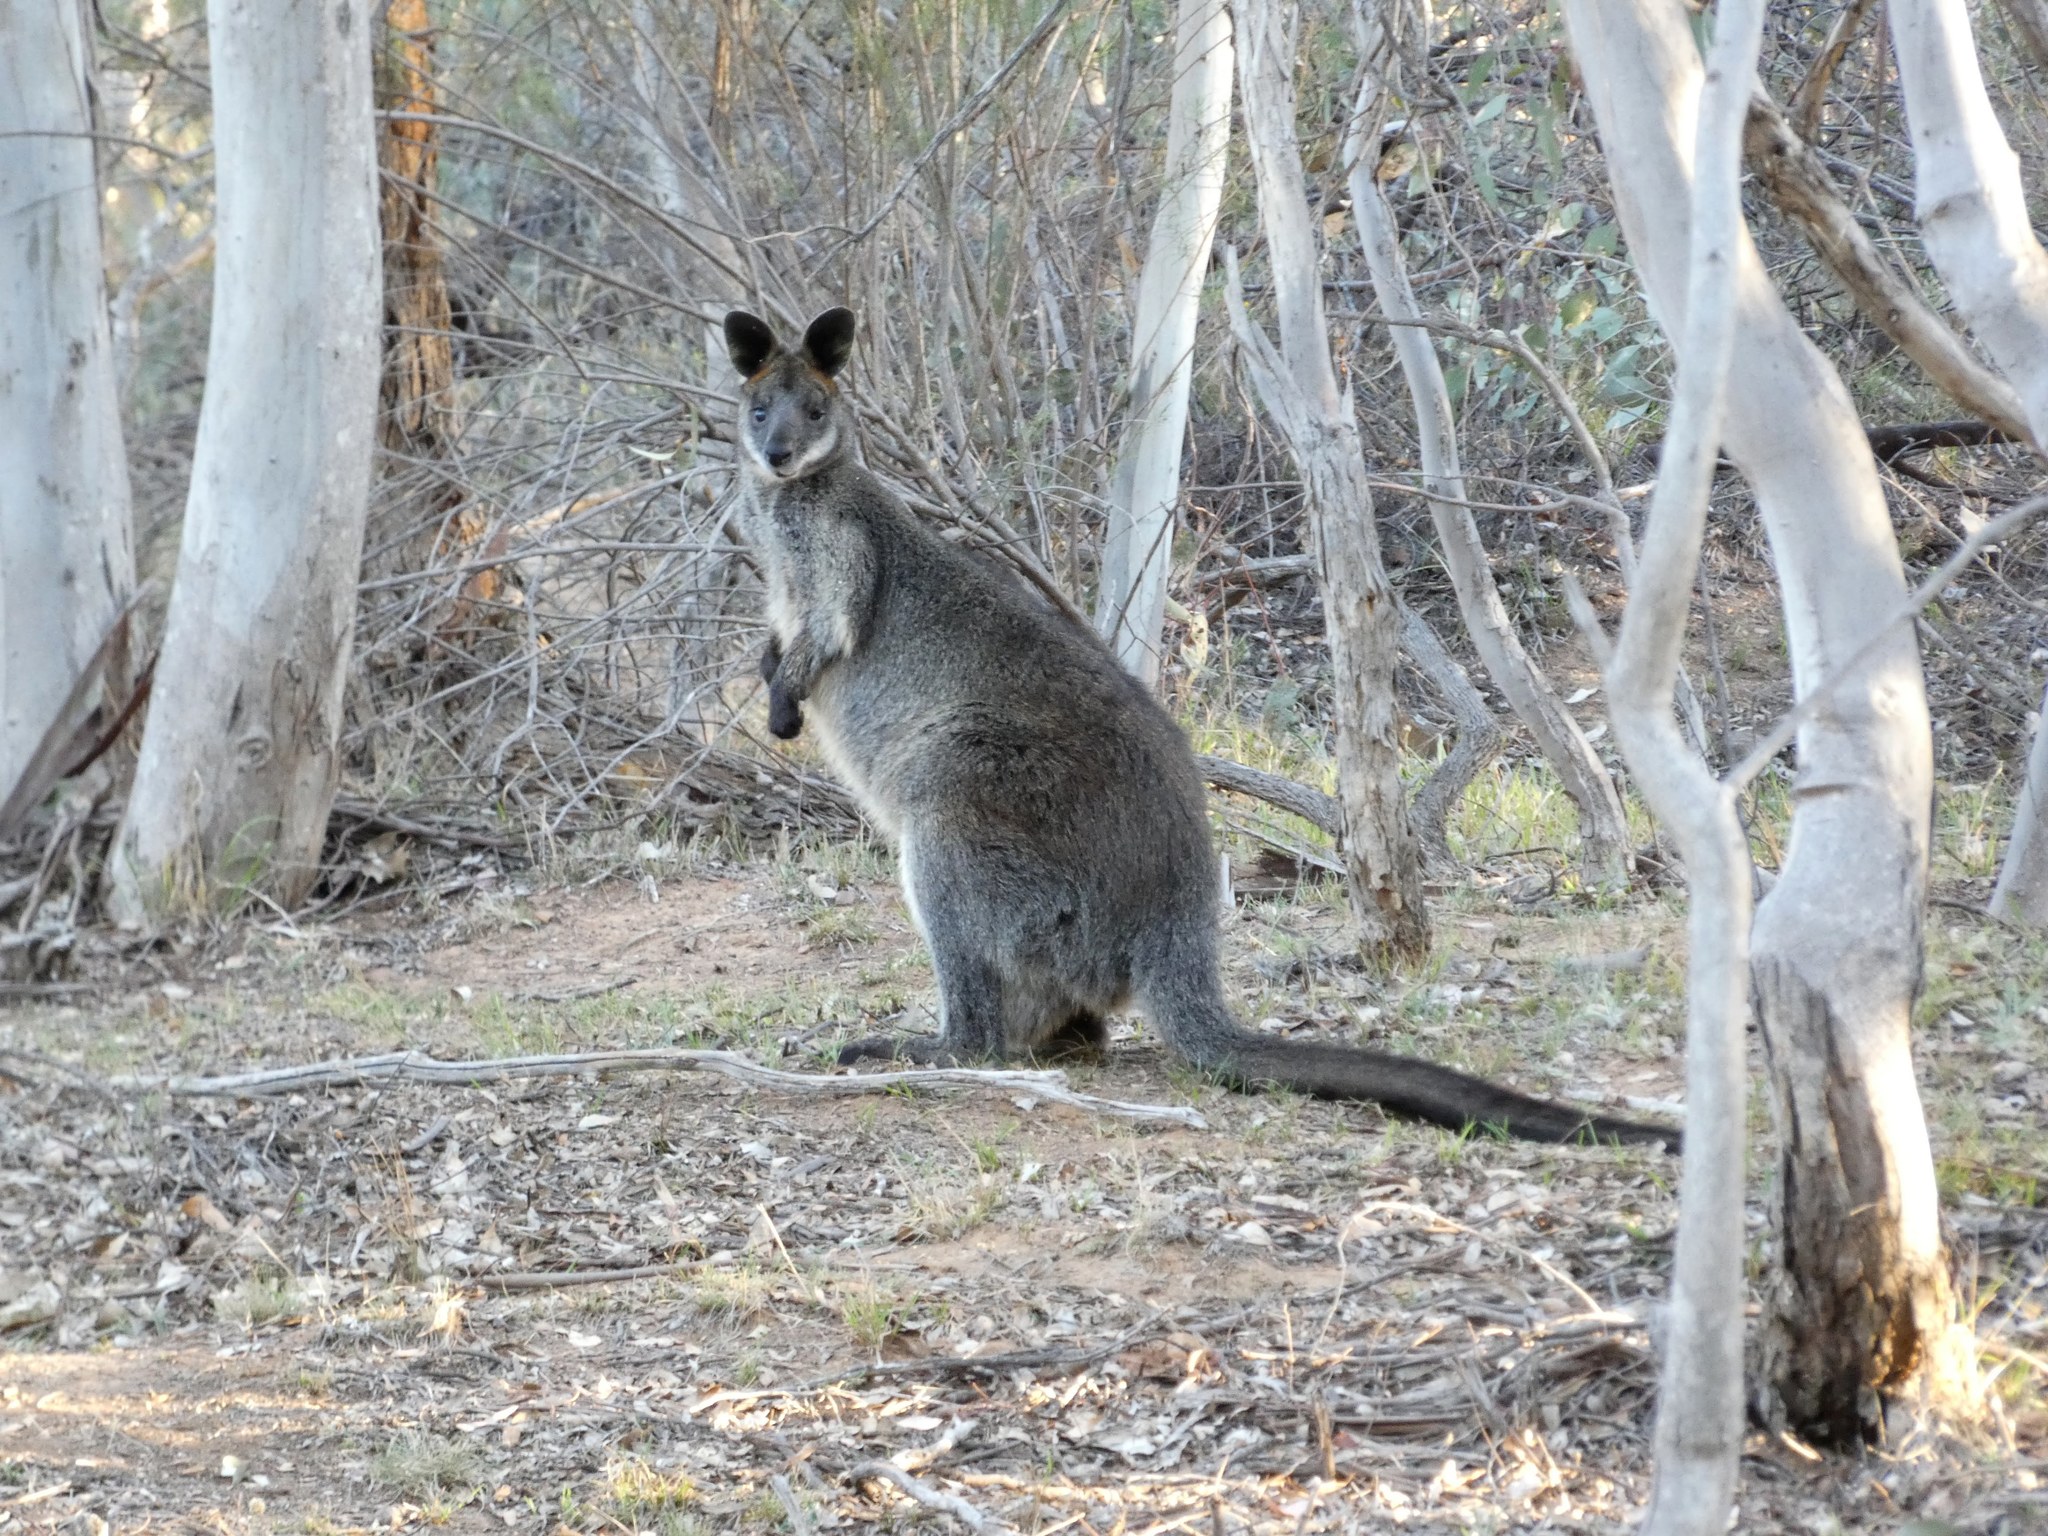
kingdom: Animalia
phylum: Chordata
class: Mammalia
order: Diprotodontia
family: Macropodidae
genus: Wallabia
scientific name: Wallabia bicolor
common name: Swamp wallaby
